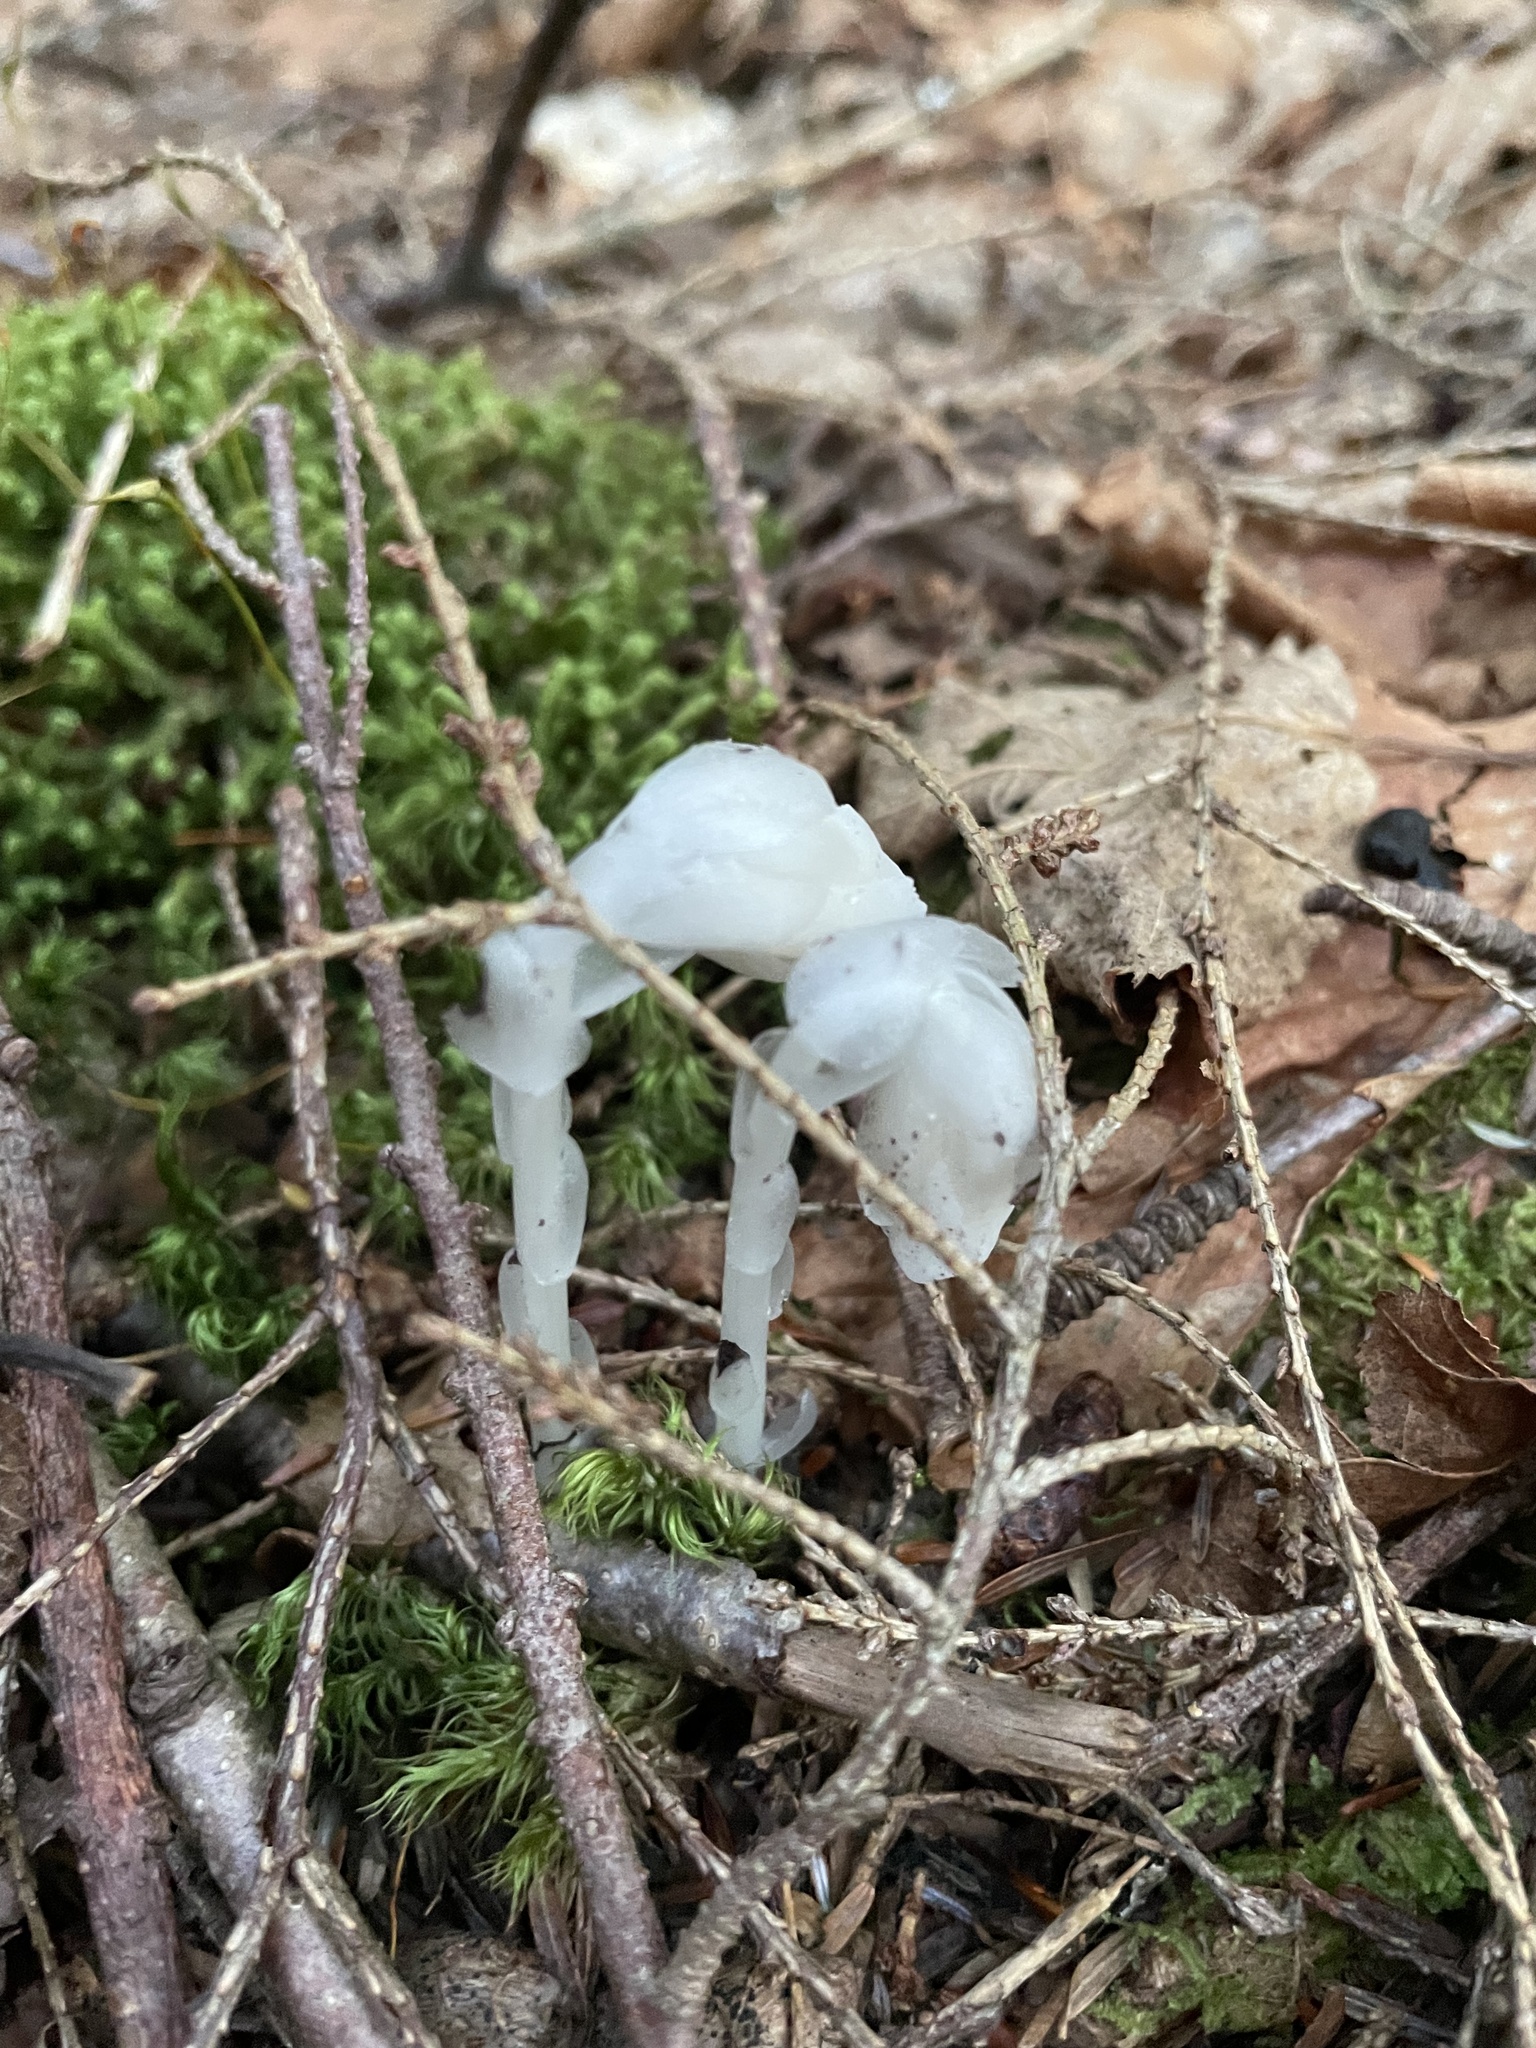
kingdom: Plantae
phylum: Tracheophyta
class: Magnoliopsida
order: Ericales
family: Ericaceae
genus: Monotropa
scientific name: Monotropa uniflora
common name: Convulsion root
